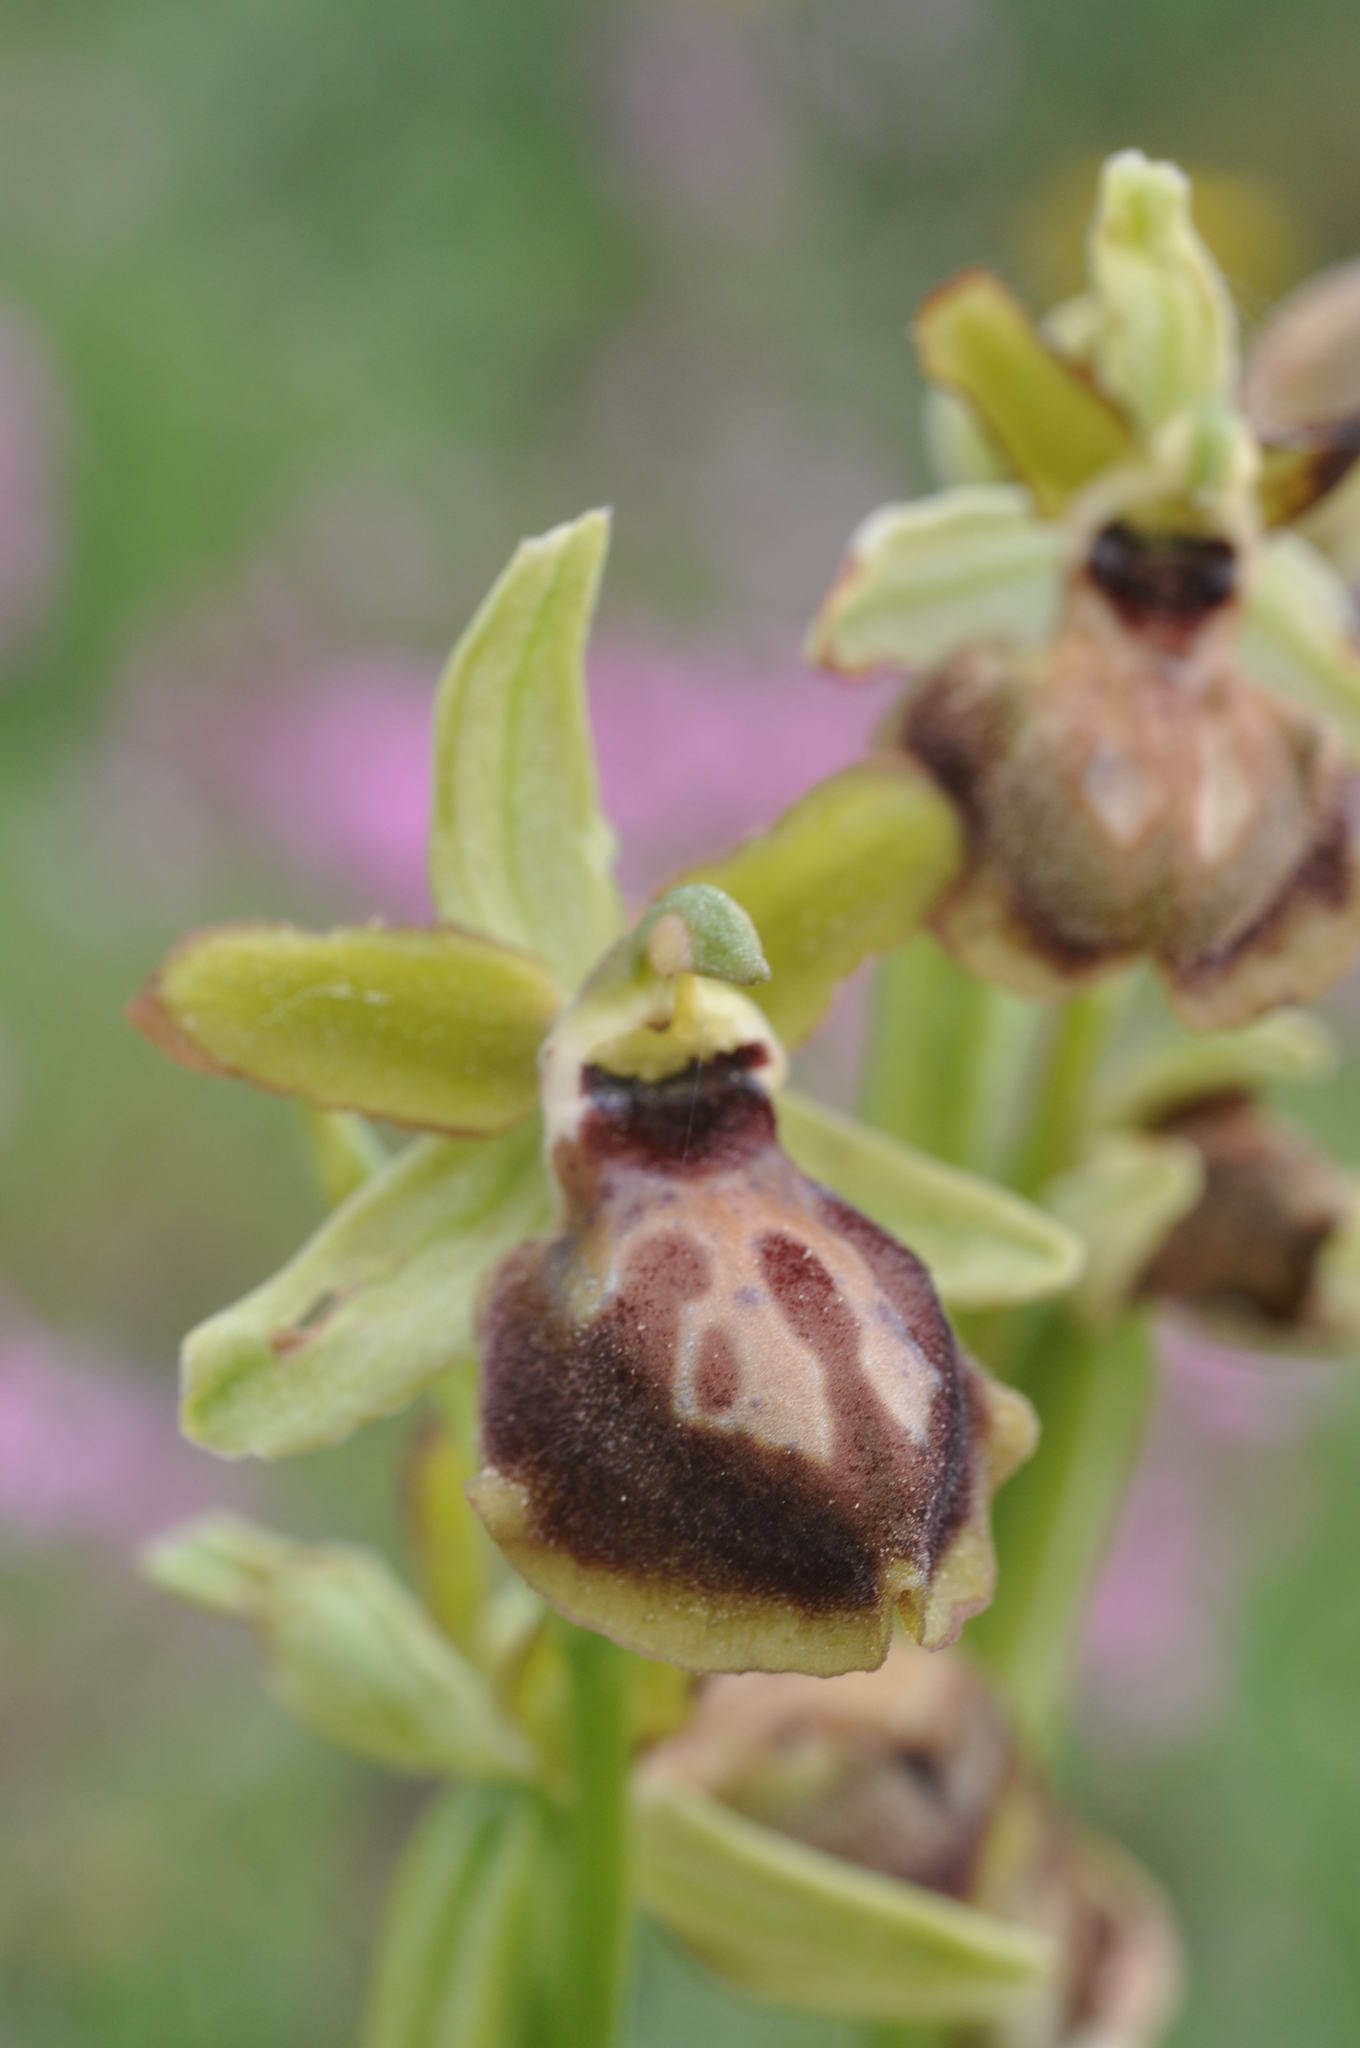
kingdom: Plantae
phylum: Tracheophyta
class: Liliopsida
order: Asparagales
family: Orchidaceae
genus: Ophrys
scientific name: Ophrys sphegodes
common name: Early spider-orchid
